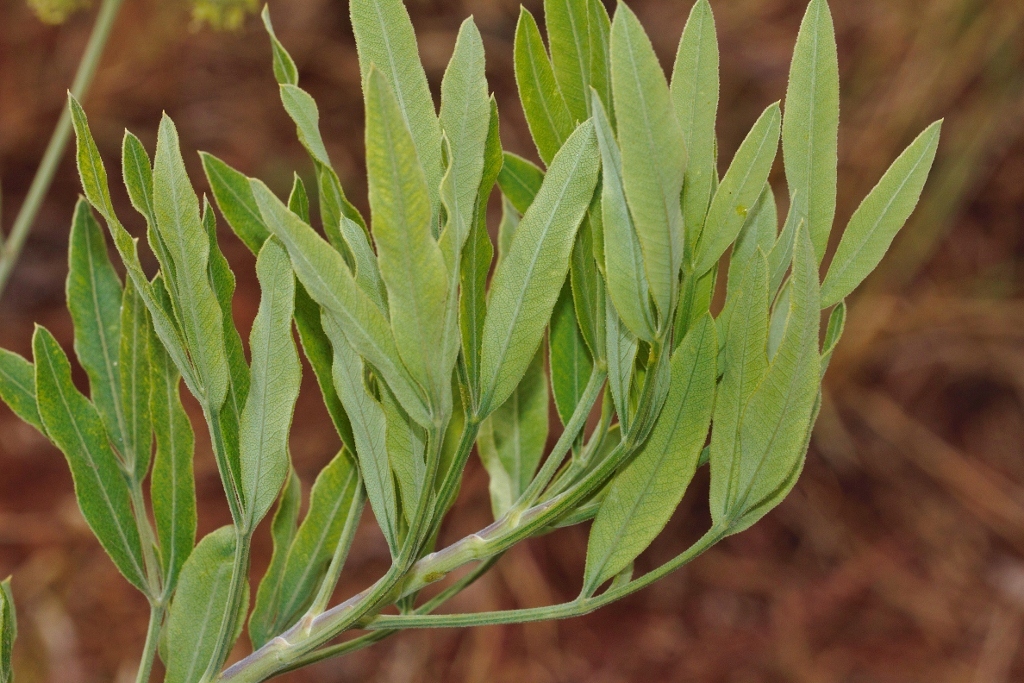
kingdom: Plantae
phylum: Tracheophyta
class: Magnoliopsida
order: Apiales
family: Apiaceae
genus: Heteromorpha
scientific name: Heteromorpha involucrata
